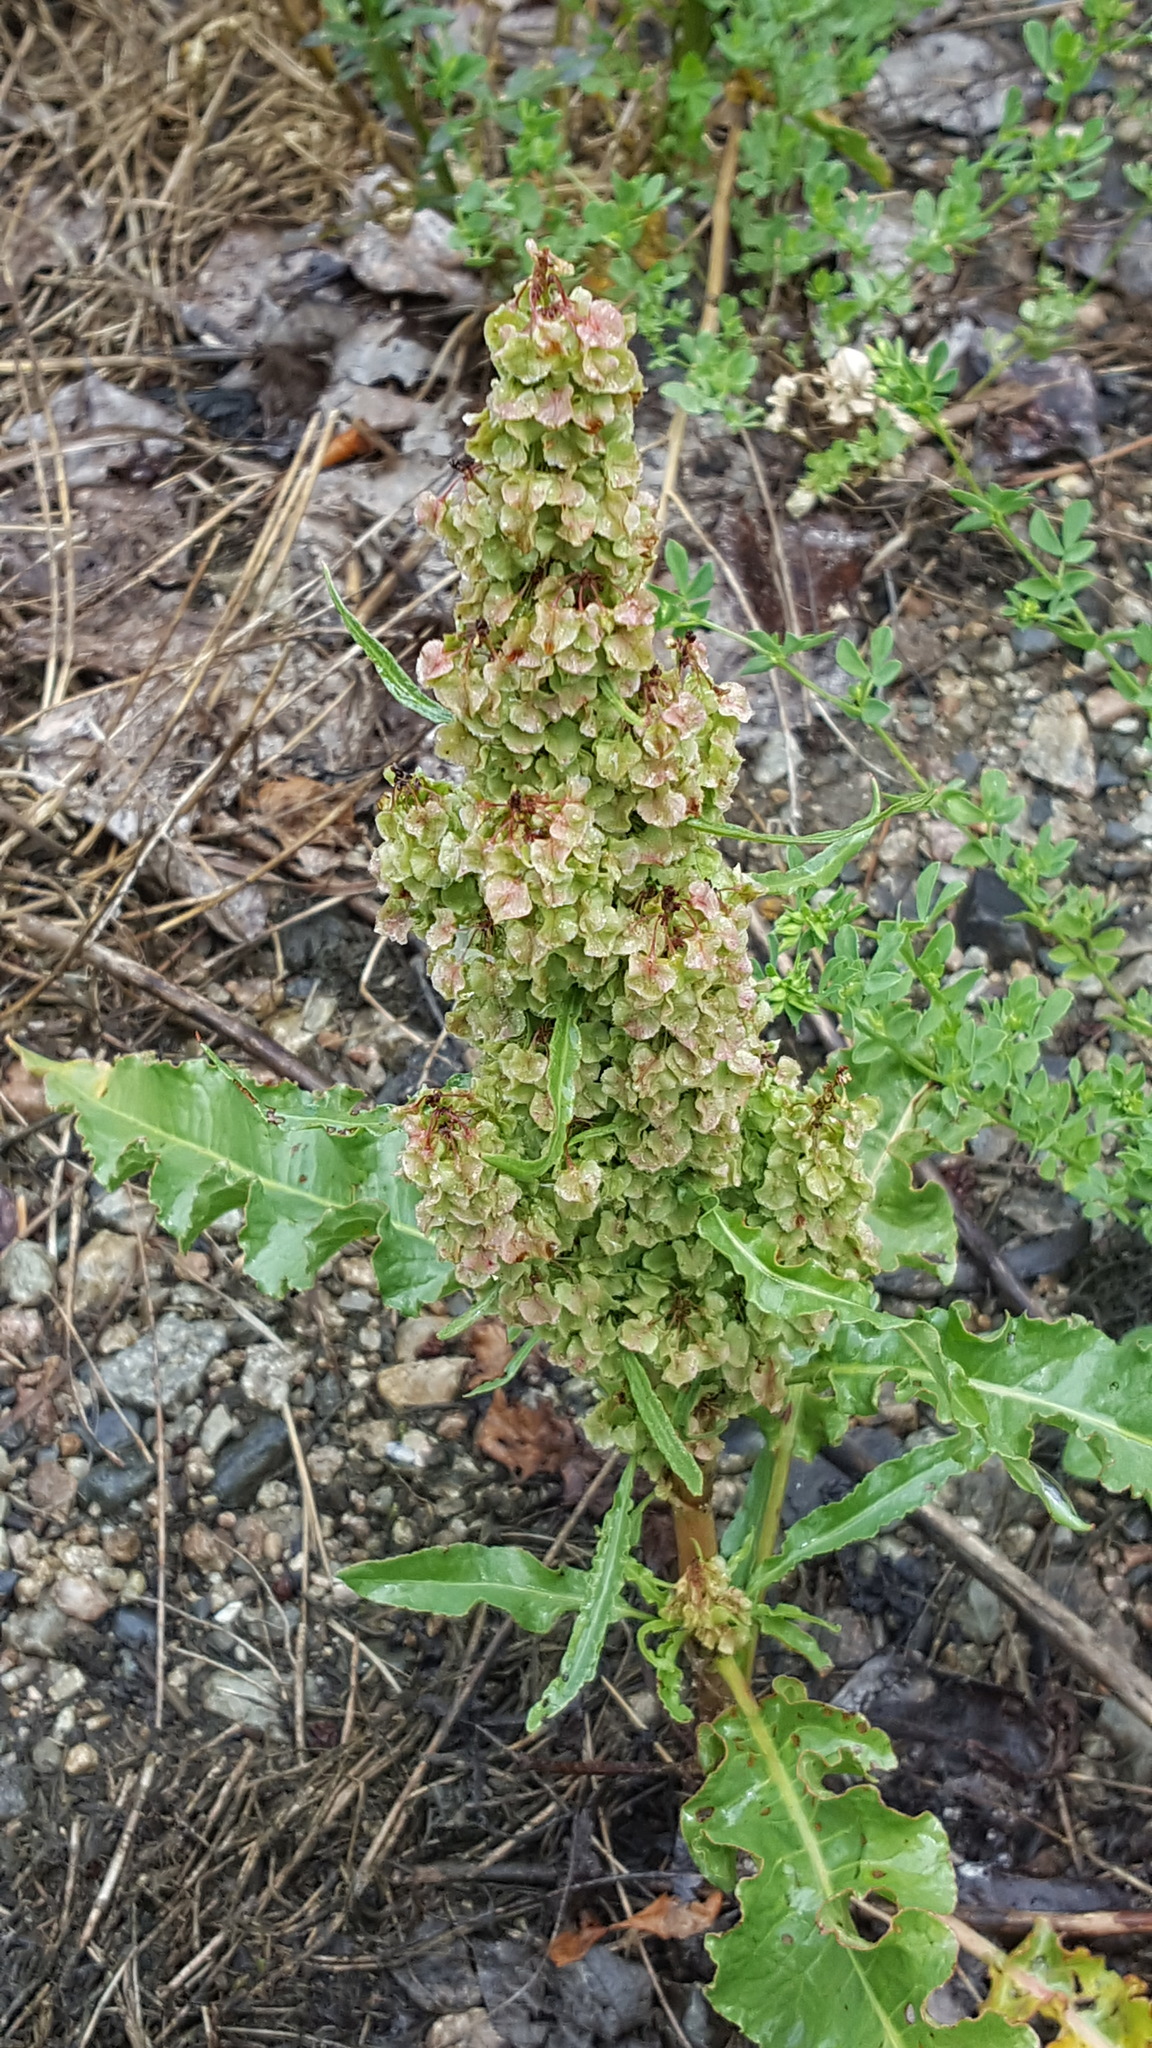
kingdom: Plantae
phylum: Tracheophyta
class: Magnoliopsida
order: Caryophyllales
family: Polygonaceae
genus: Rumex
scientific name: Rumex crispus
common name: Curled dock
